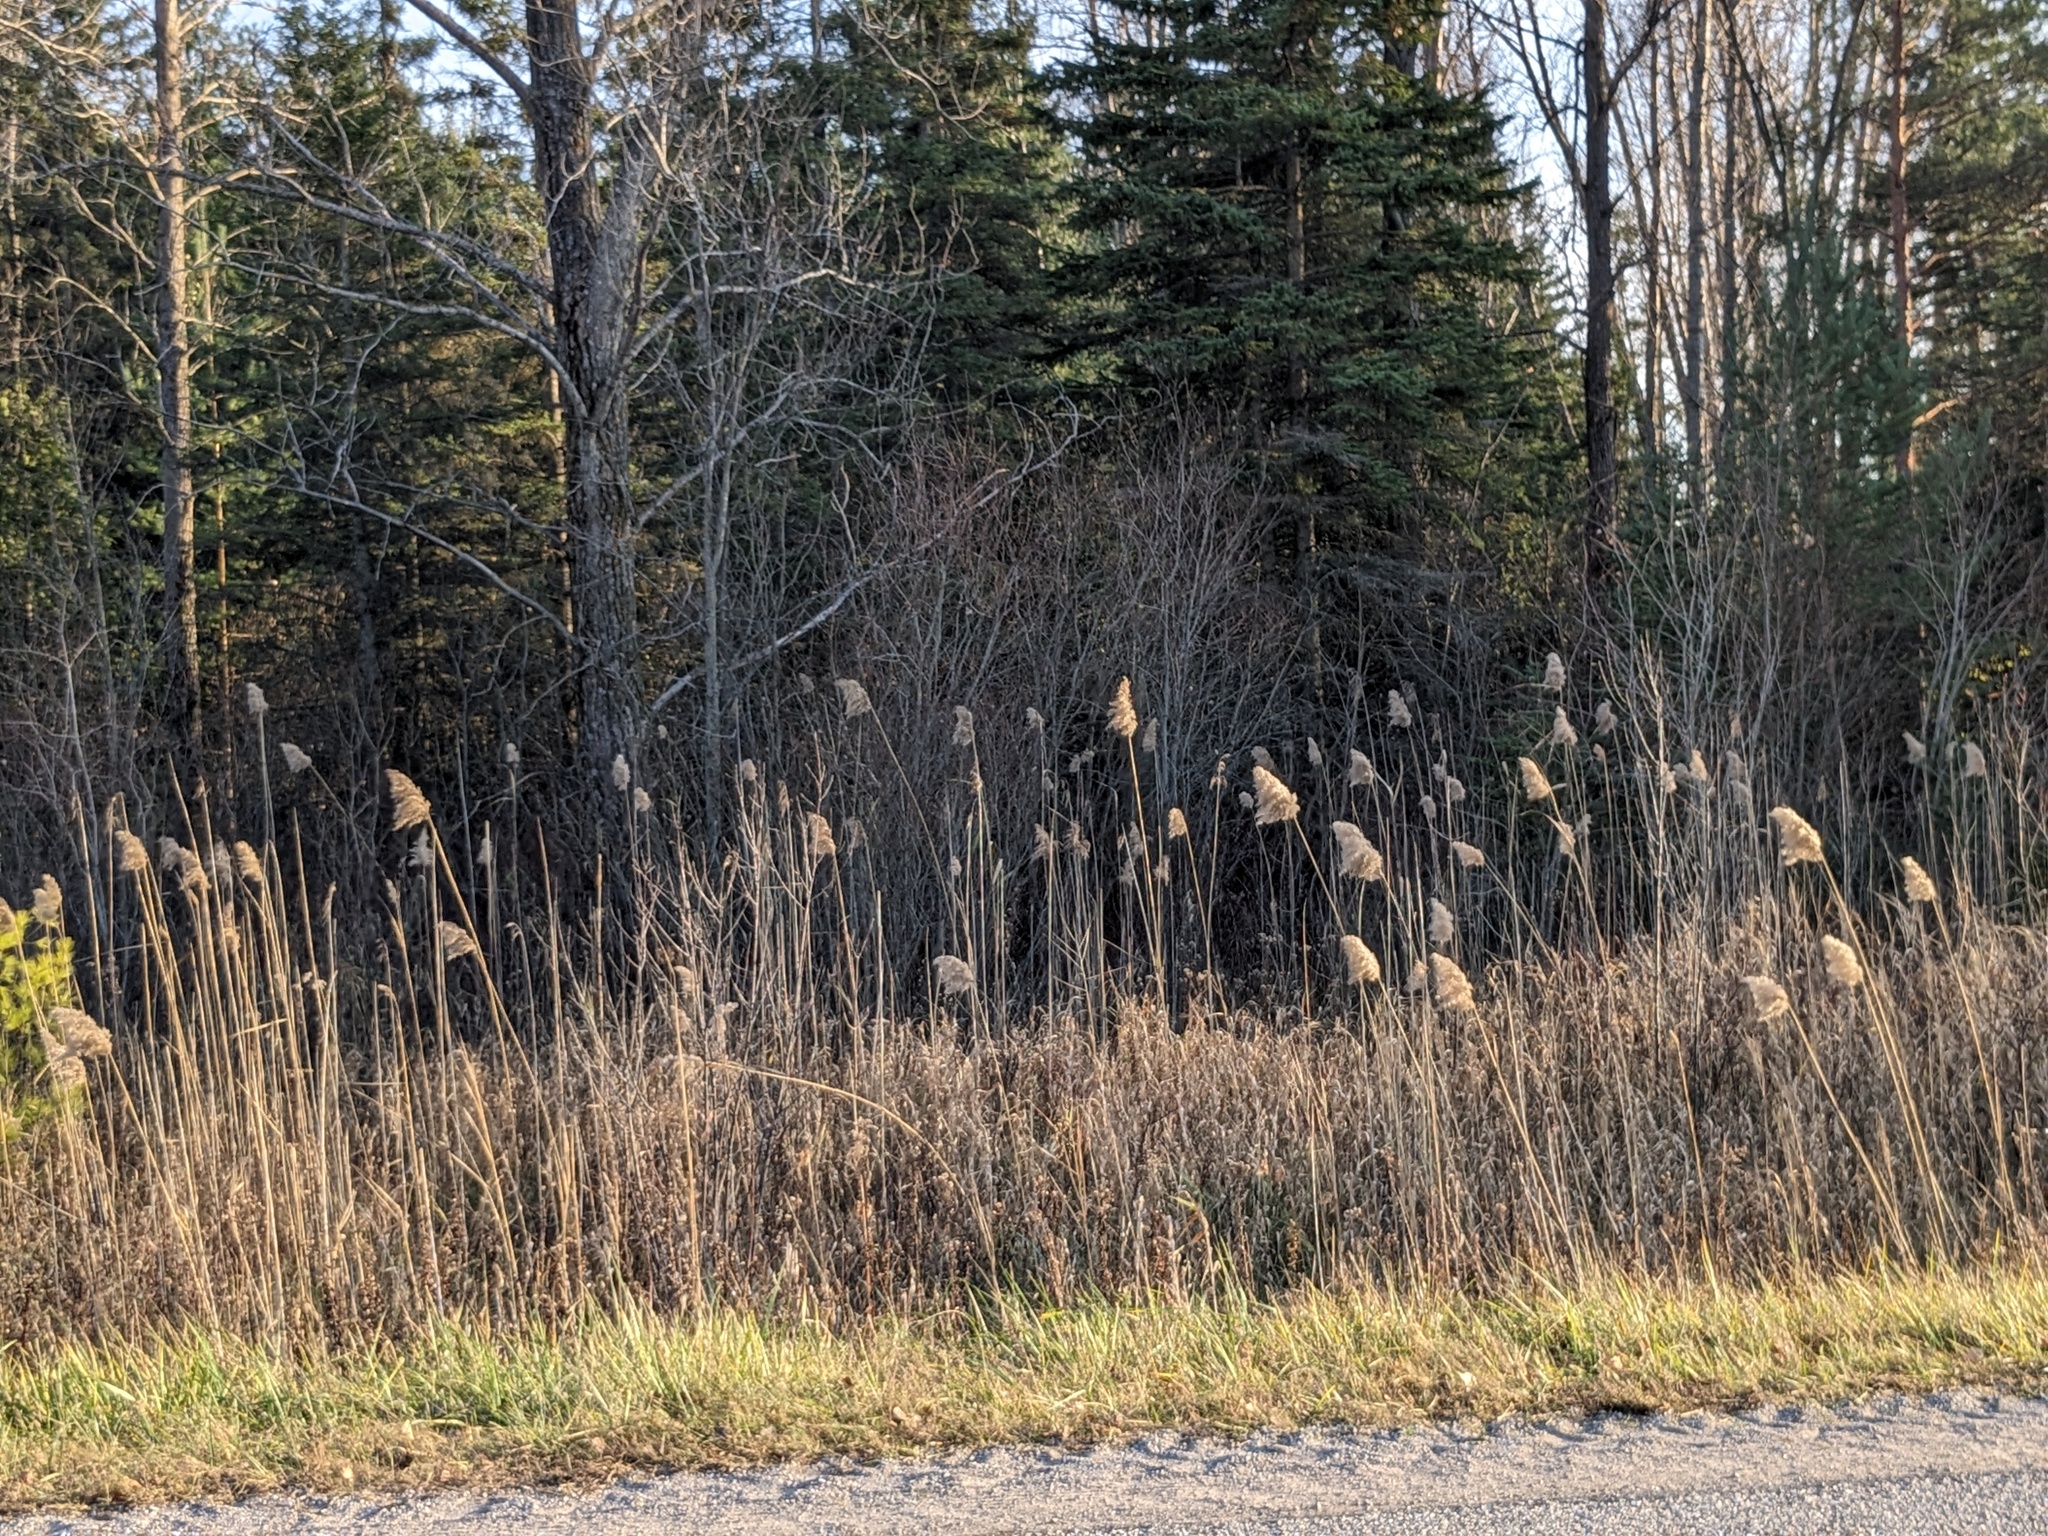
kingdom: Plantae
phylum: Tracheophyta
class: Liliopsida
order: Poales
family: Poaceae
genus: Phragmites
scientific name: Phragmites australis
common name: Common reed
